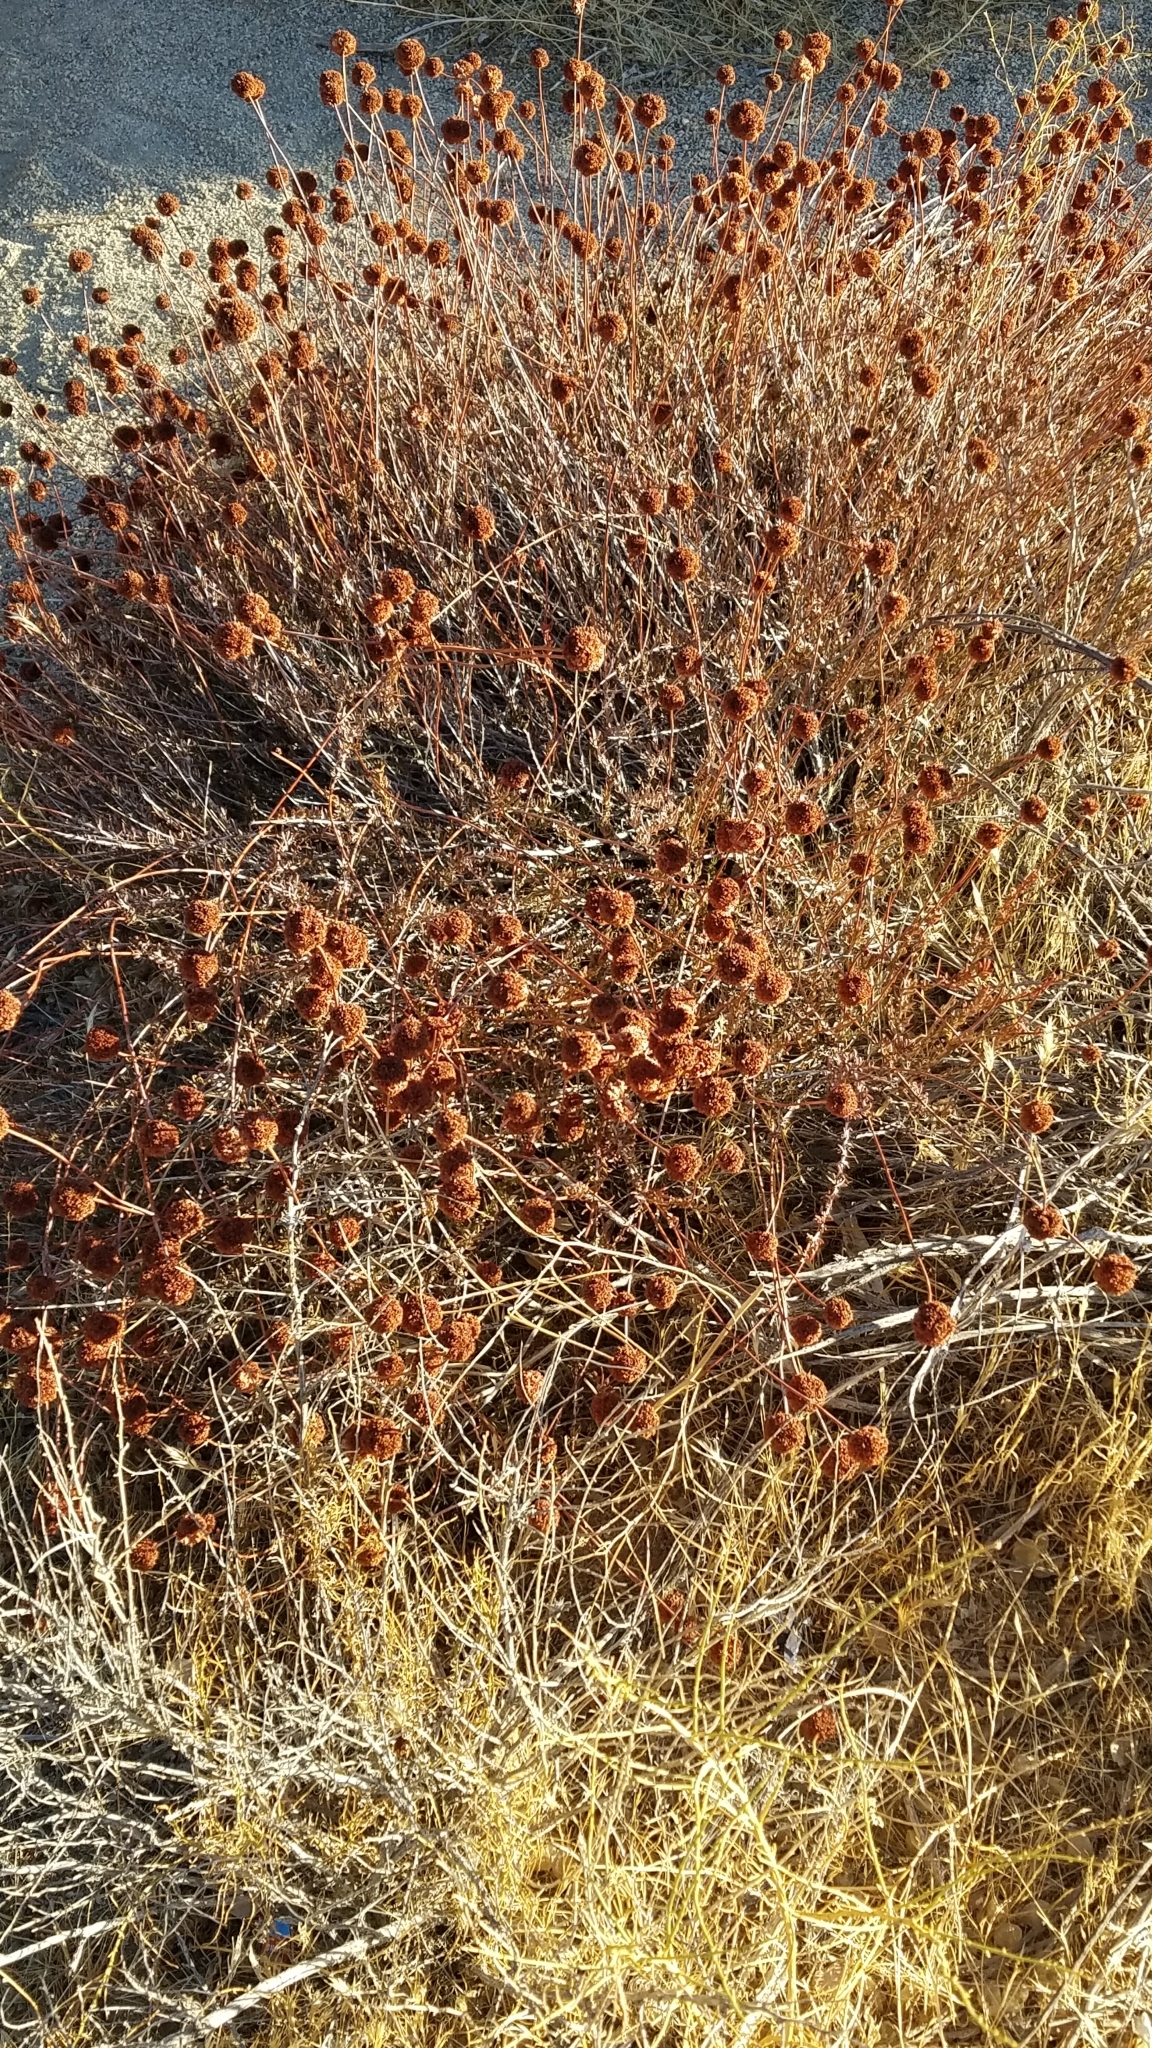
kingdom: Plantae
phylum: Tracheophyta
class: Magnoliopsida
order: Caryophyllales
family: Polygonaceae
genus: Eriogonum
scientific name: Eriogonum fasciculatum
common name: California wild buckwheat
